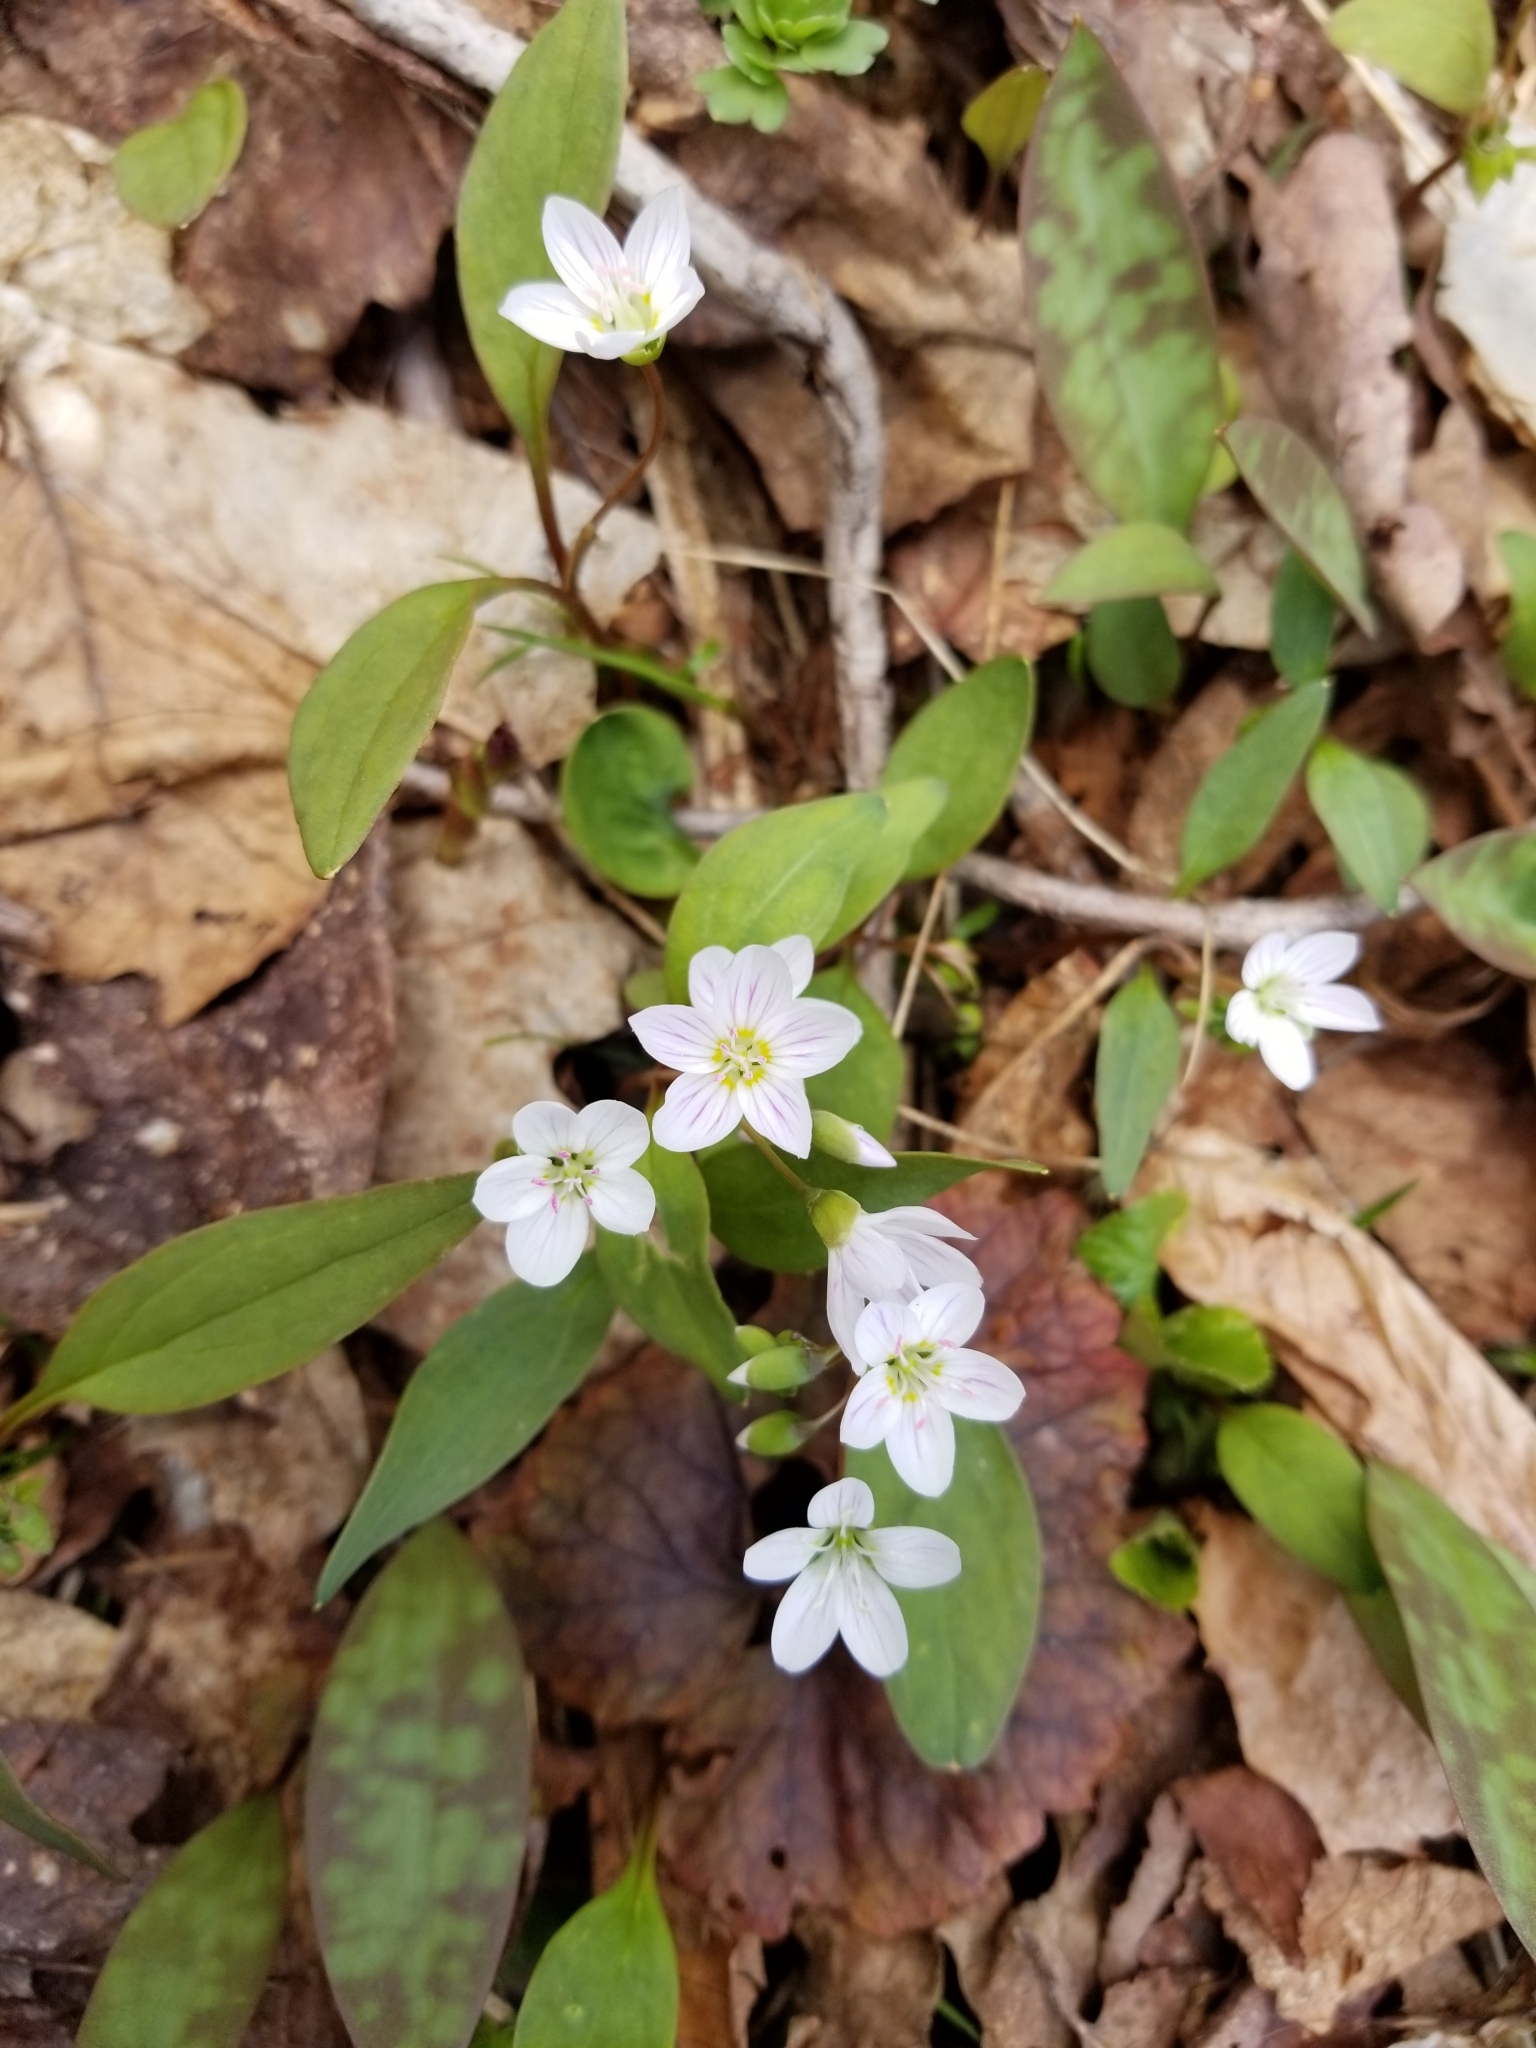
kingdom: Plantae
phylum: Tracheophyta
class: Magnoliopsida
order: Caryophyllales
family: Montiaceae
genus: Claytonia
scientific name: Claytonia caroliniana
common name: Carolina spring beauty
